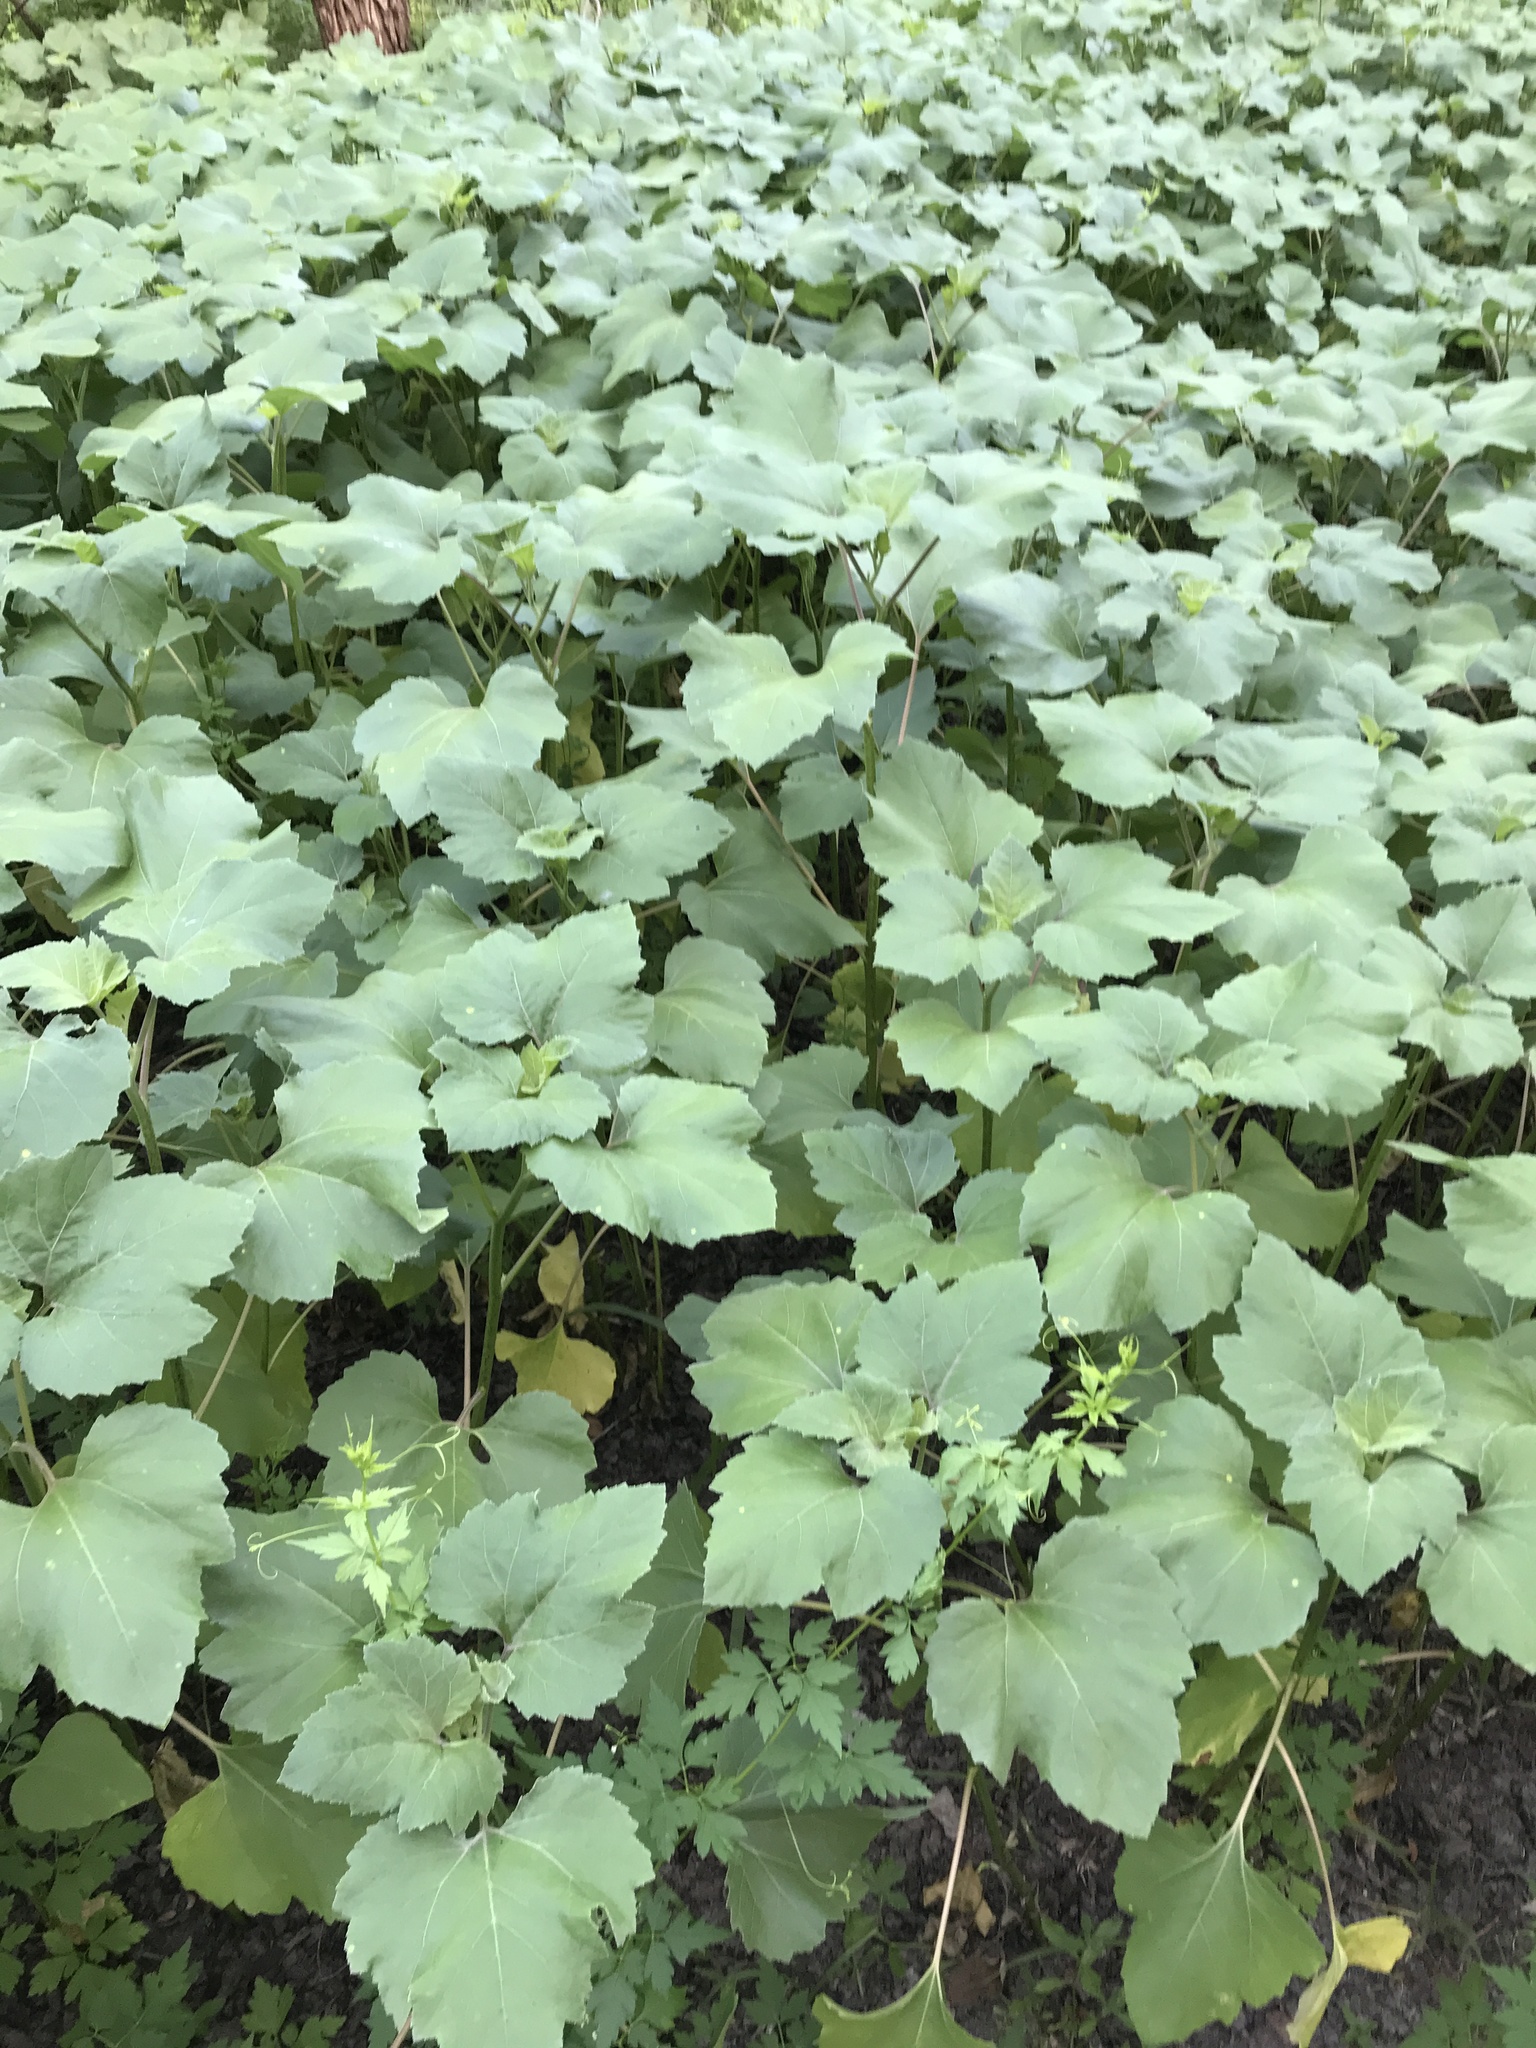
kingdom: Plantae
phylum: Tracheophyta
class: Magnoliopsida
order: Asterales
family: Asteraceae
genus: Xanthium
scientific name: Xanthium strumarium
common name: Rough cocklebur
